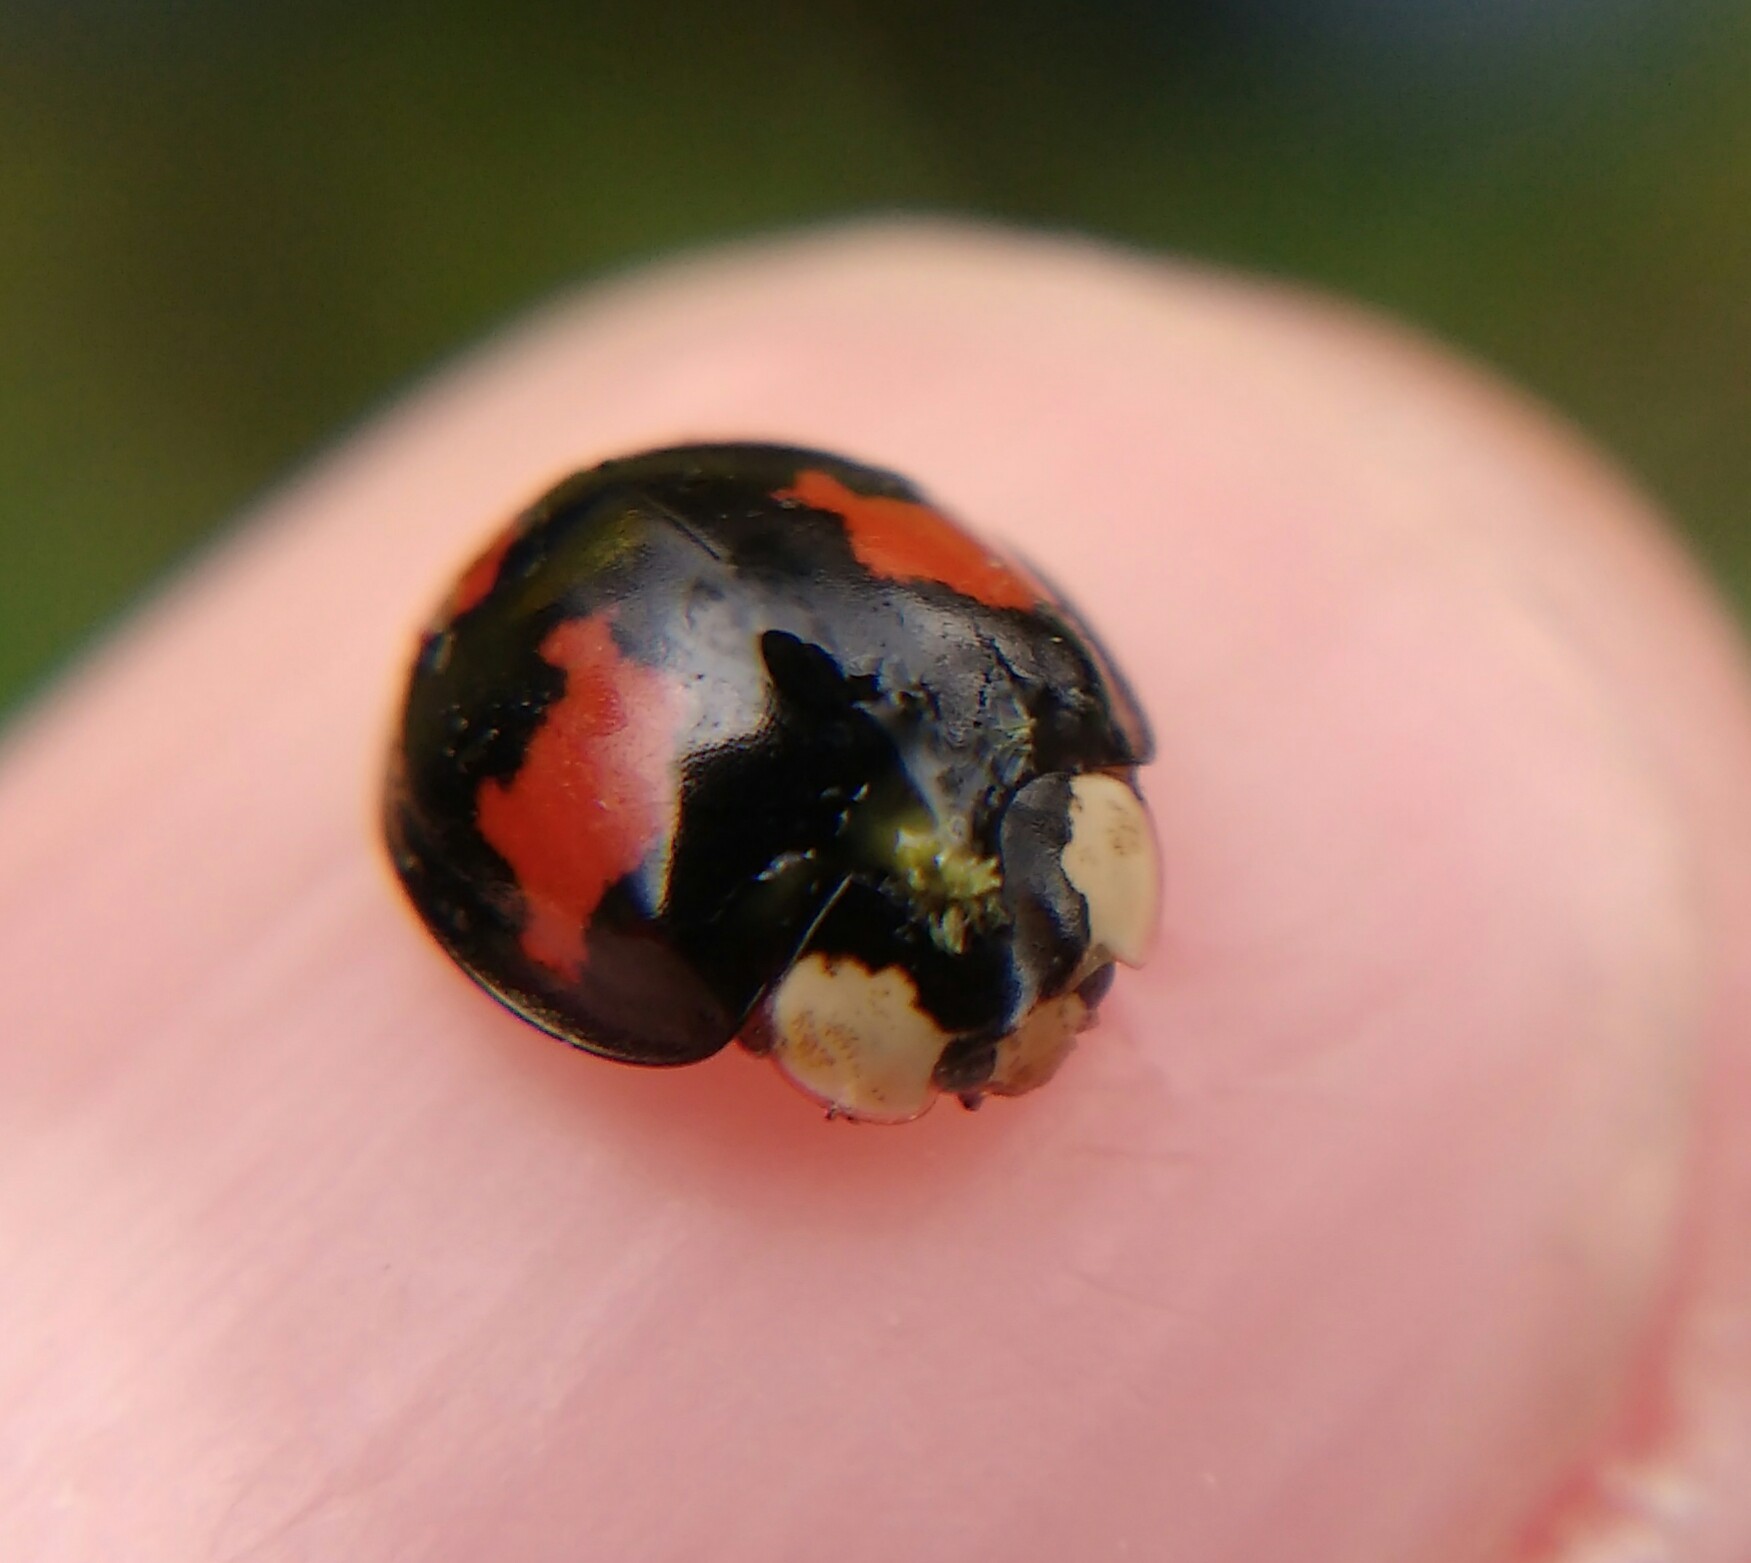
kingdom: Animalia
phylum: Arthropoda
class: Insecta
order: Coleoptera
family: Coccinellidae
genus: Harmonia
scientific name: Harmonia axyridis
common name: Harlequin ladybird
